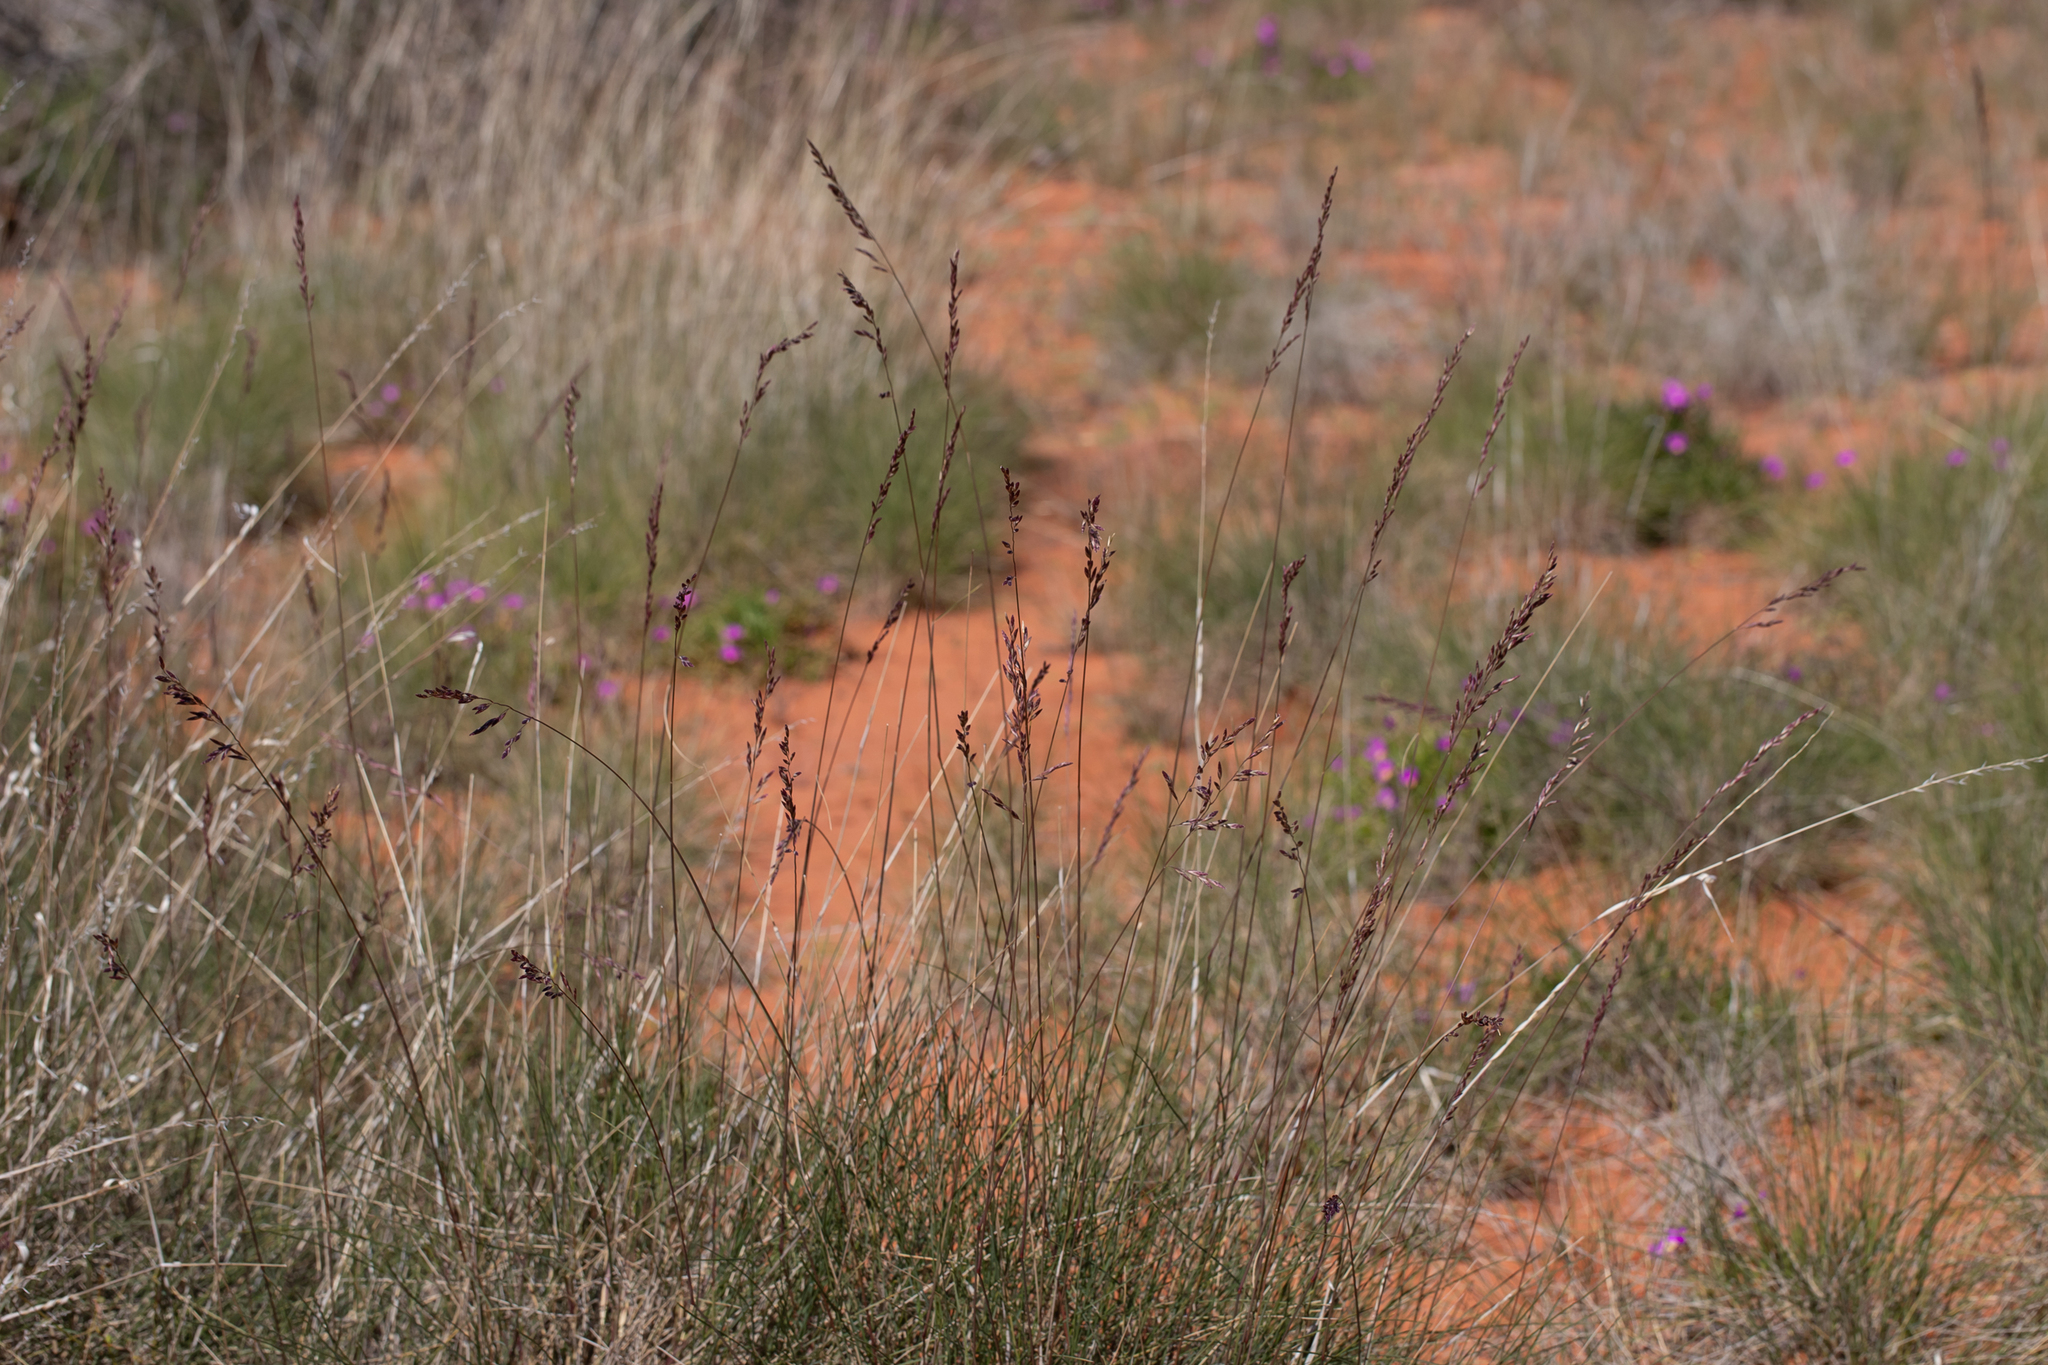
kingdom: Plantae
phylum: Tracheophyta
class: Liliopsida
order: Poales
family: Poaceae
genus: Triodia
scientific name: Triodia basedowii
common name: Hard spinifex
